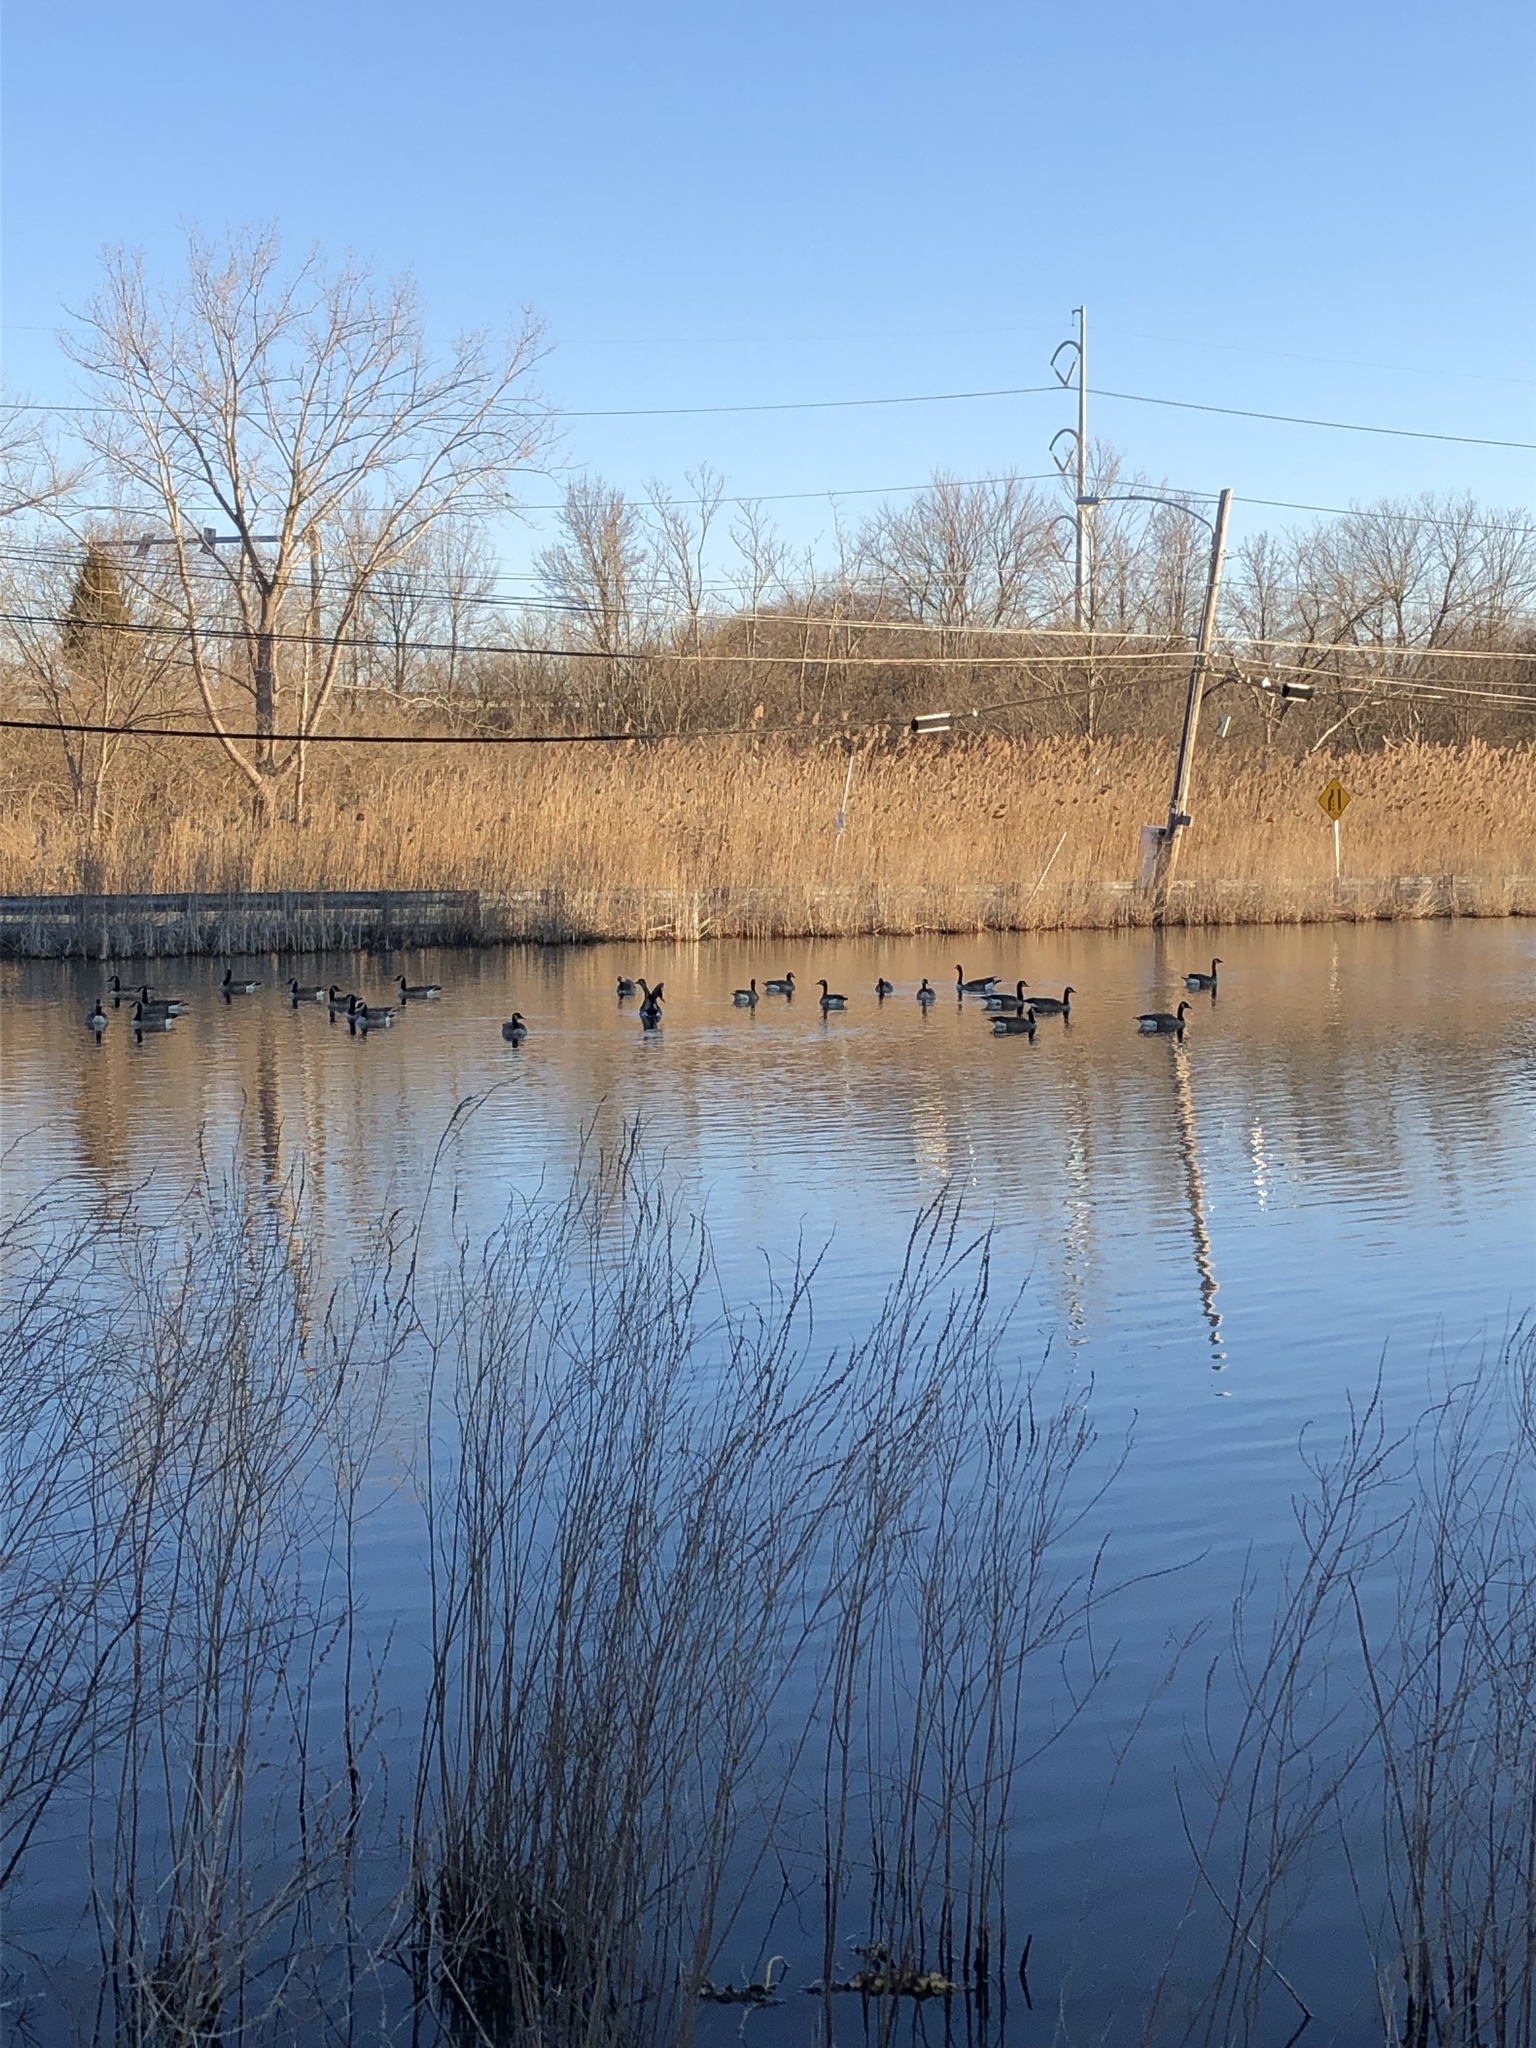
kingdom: Animalia
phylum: Chordata
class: Aves
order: Anseriformes
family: Anatidae
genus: Branta
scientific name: Branta canadensis
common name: Canada goose
